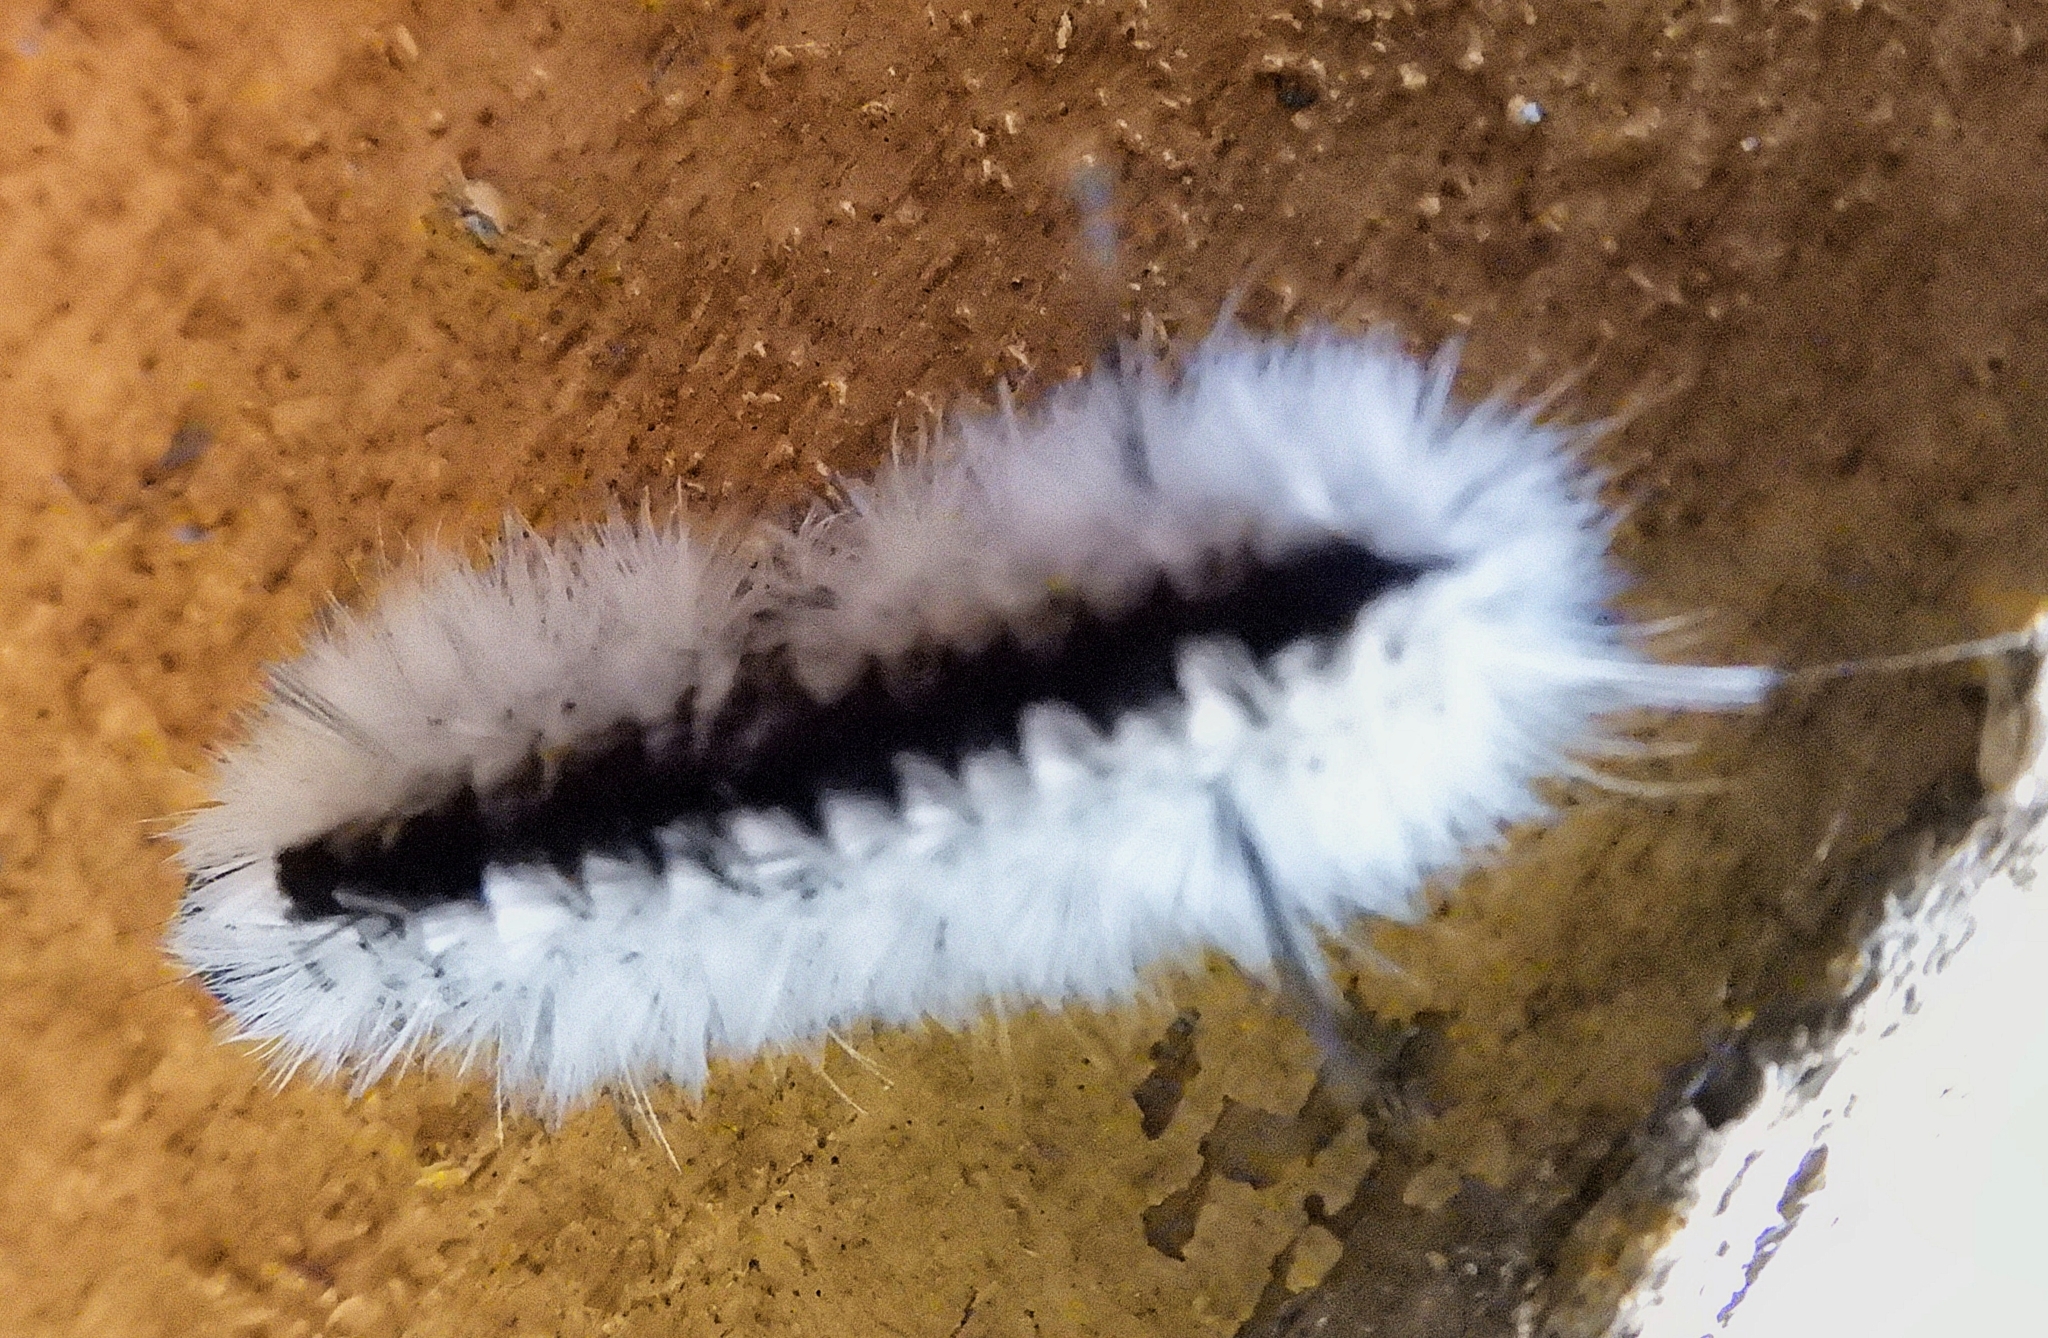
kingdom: Animalia
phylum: Arthropoda
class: Insecta
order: Lepidoptera
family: Erebidae
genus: Lophocampa
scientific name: Lophocampa caryae
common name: Hickory tussock moth
